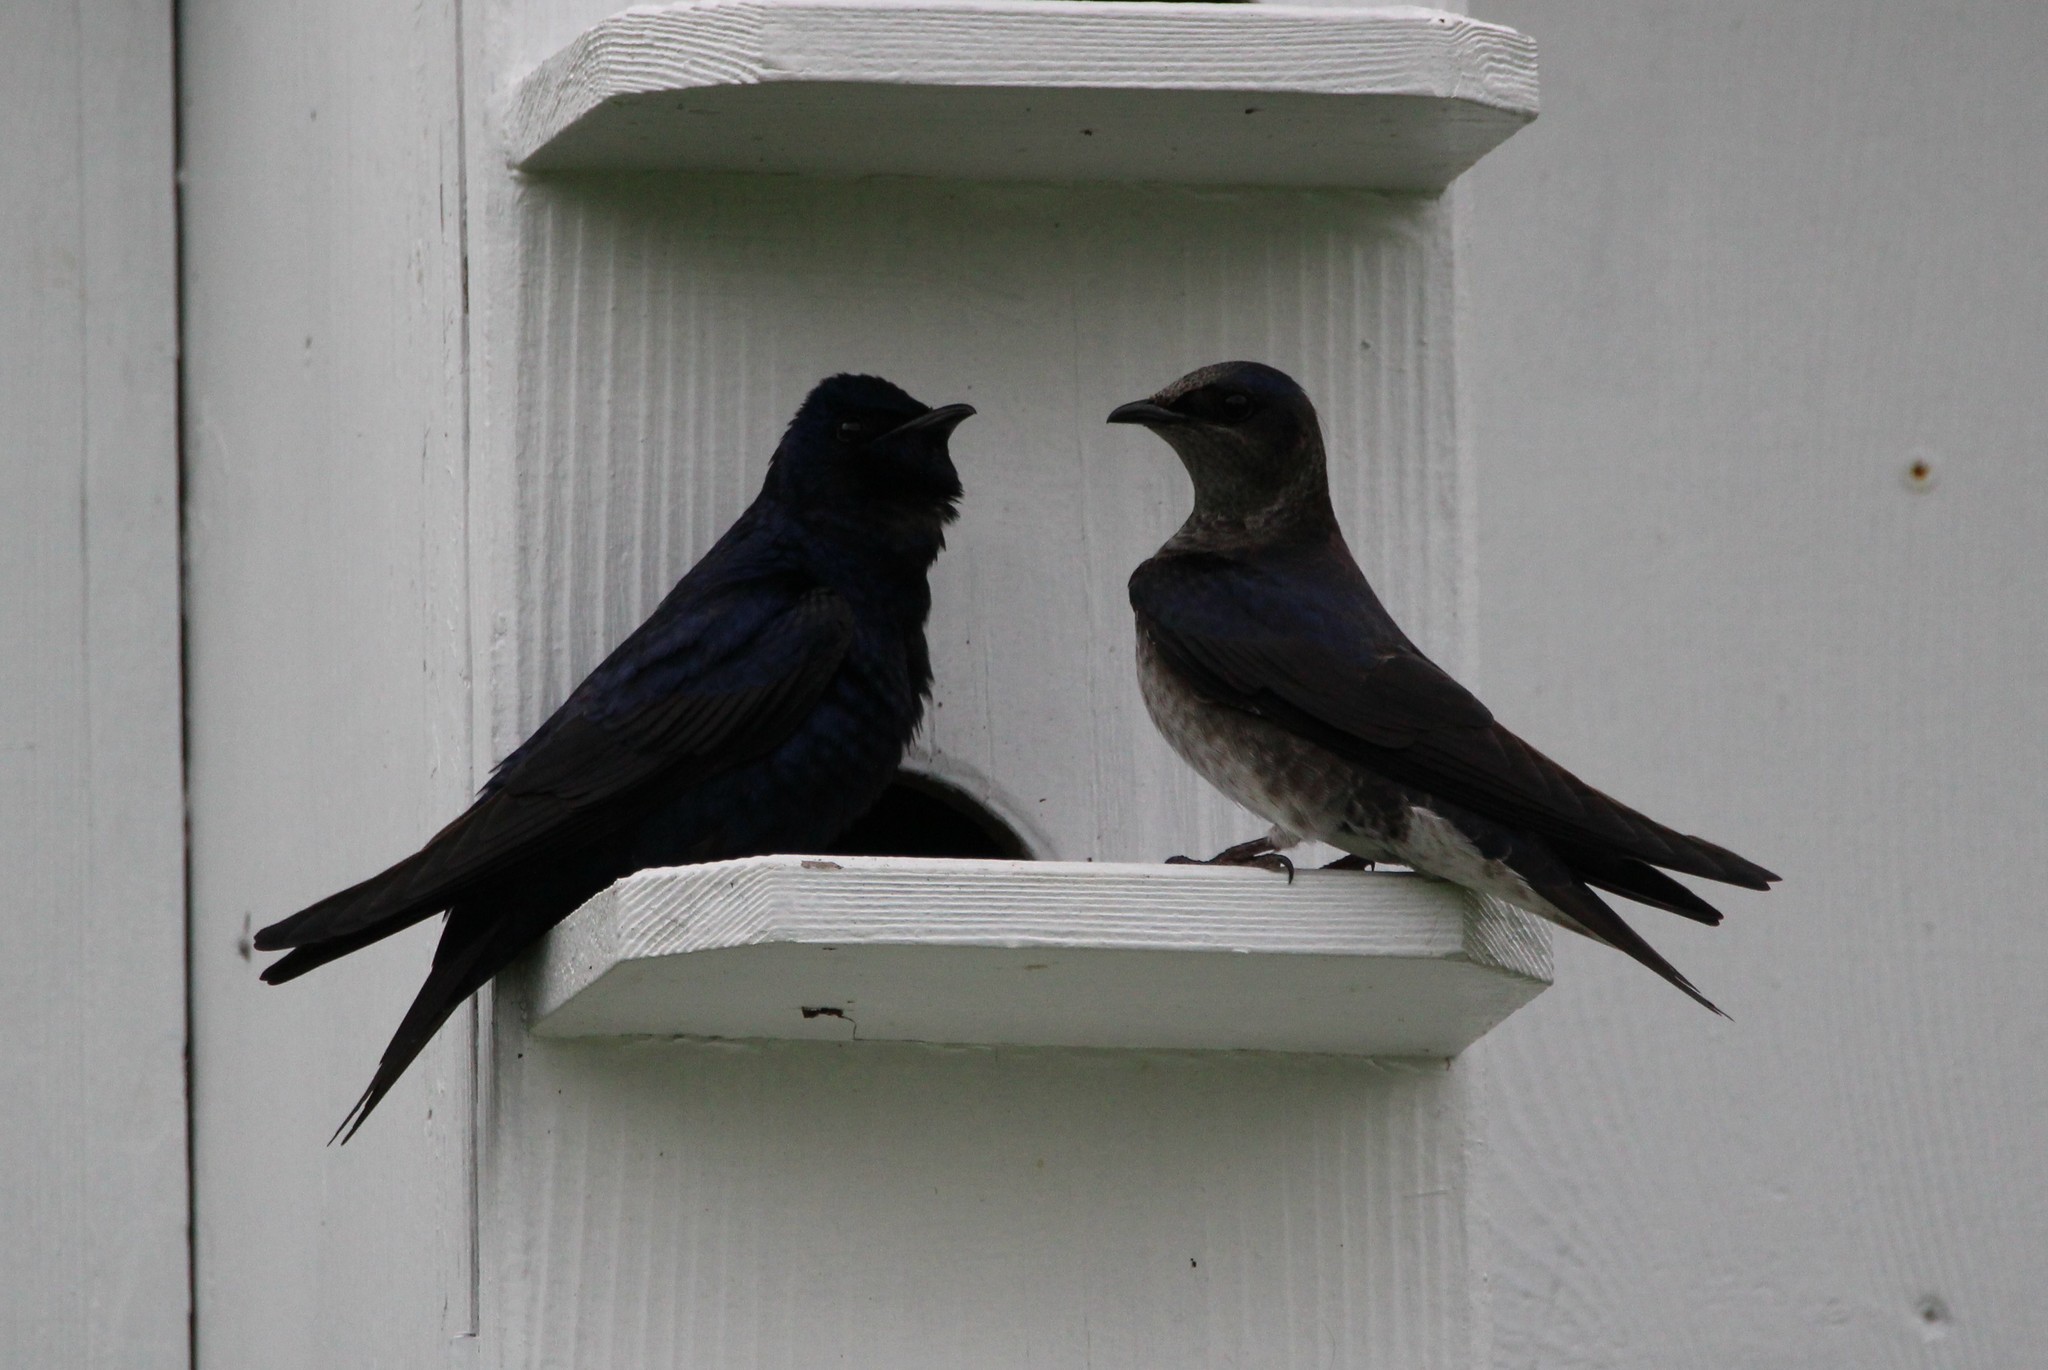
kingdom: Animalia
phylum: Chordata
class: Aves
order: Passeriformes
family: Hirundinidae
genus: Progne
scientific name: Progne subis
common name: Purple martin
